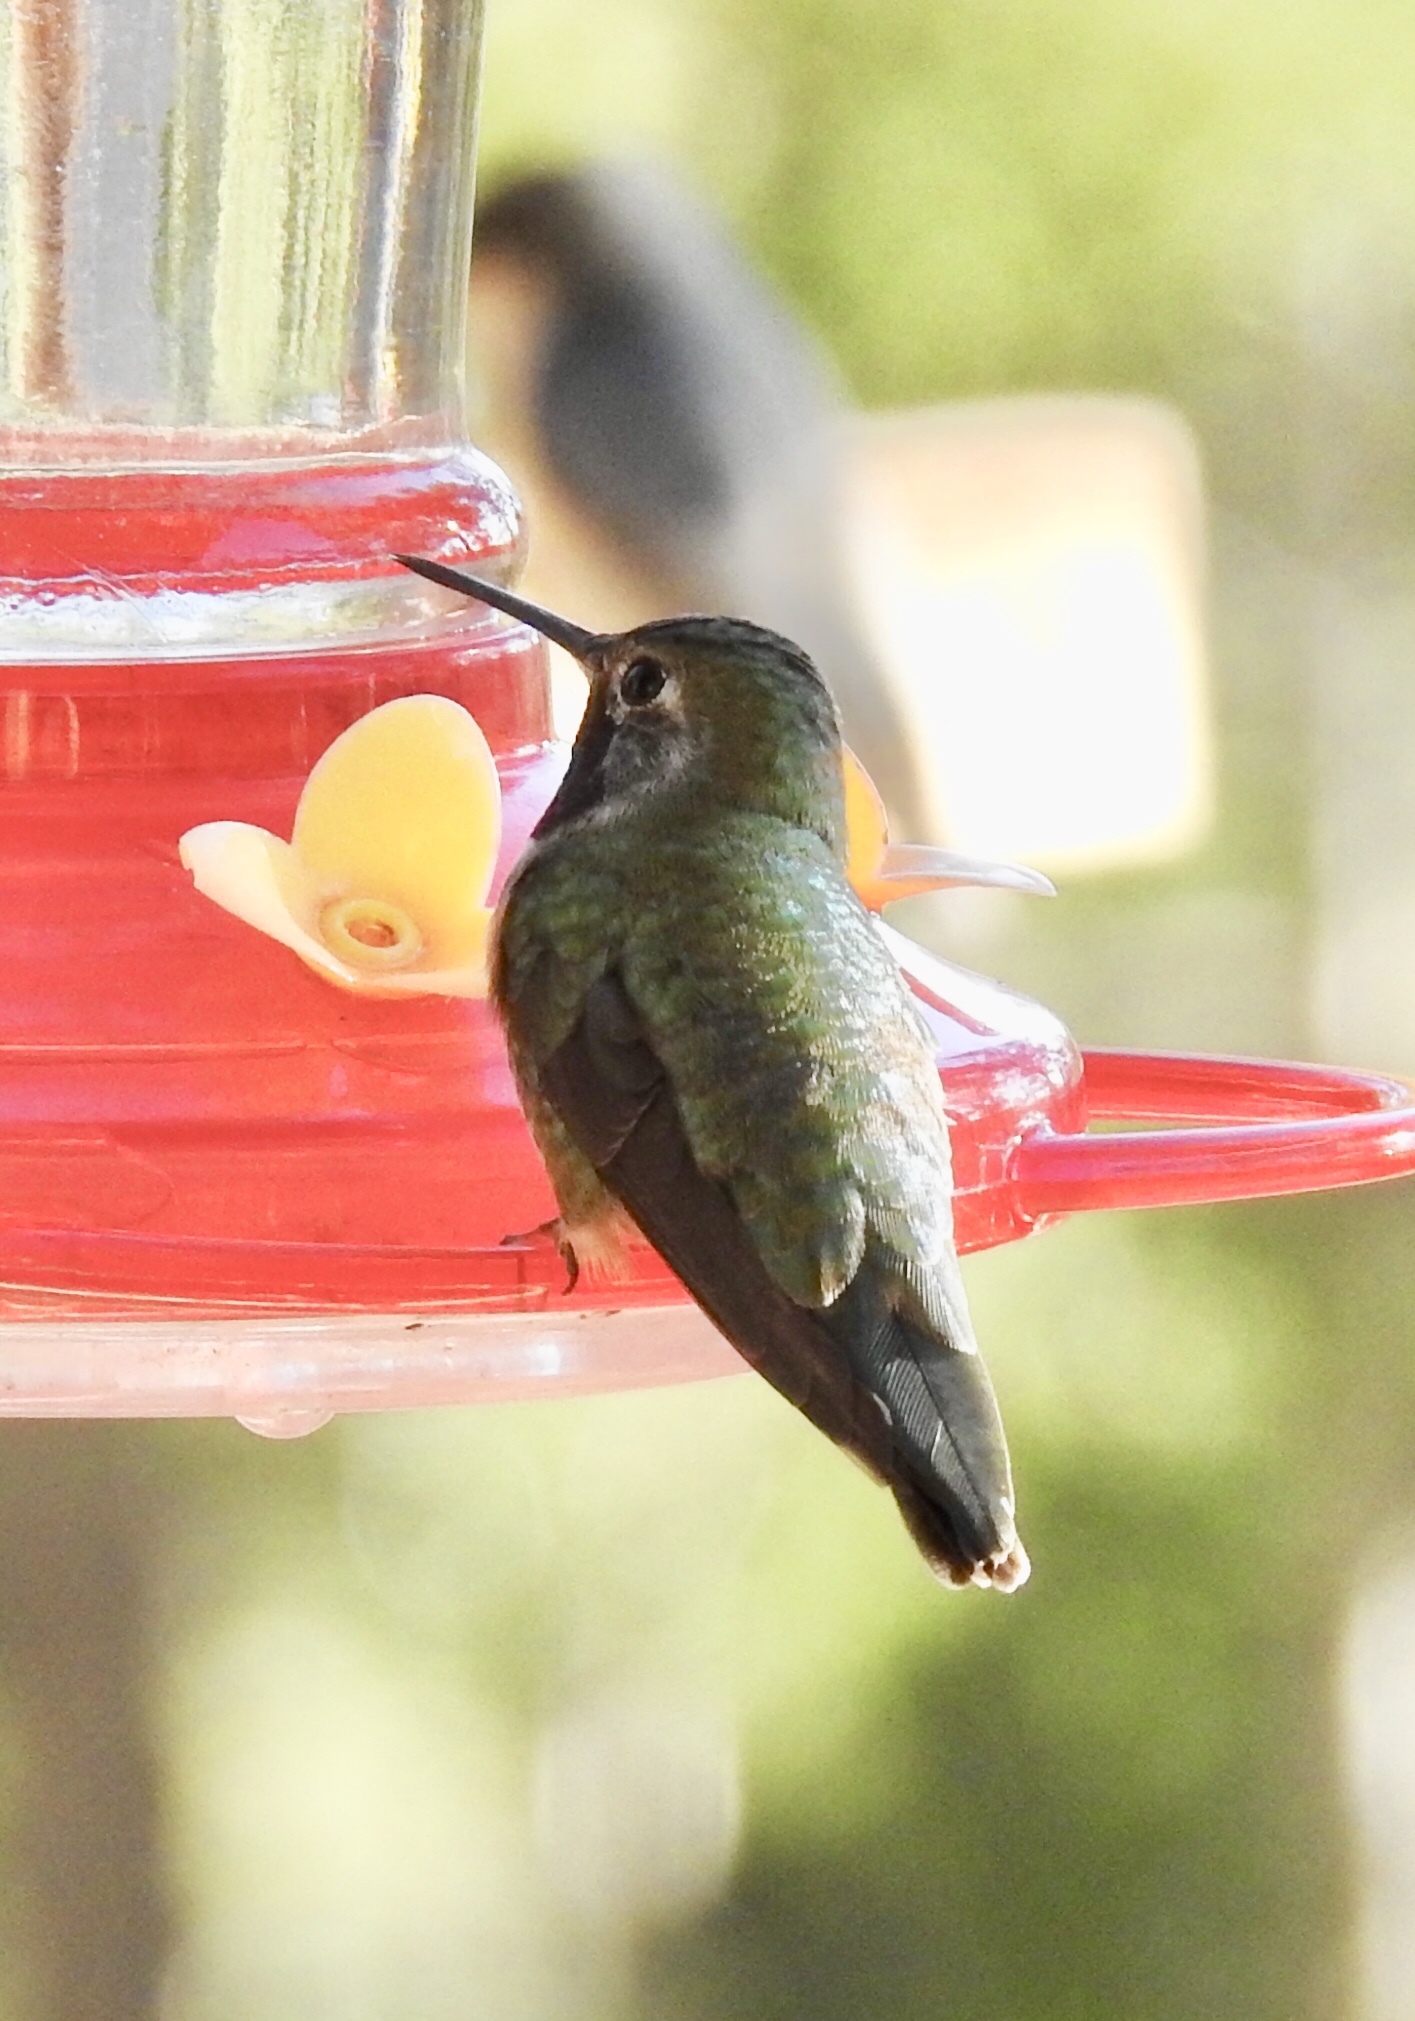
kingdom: Animalia
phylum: Chordata
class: Aves
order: Apodiformes
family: Trochilidae
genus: Selasphorus
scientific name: Selasphorus platycercus
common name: Broad-tailed hummingbird
